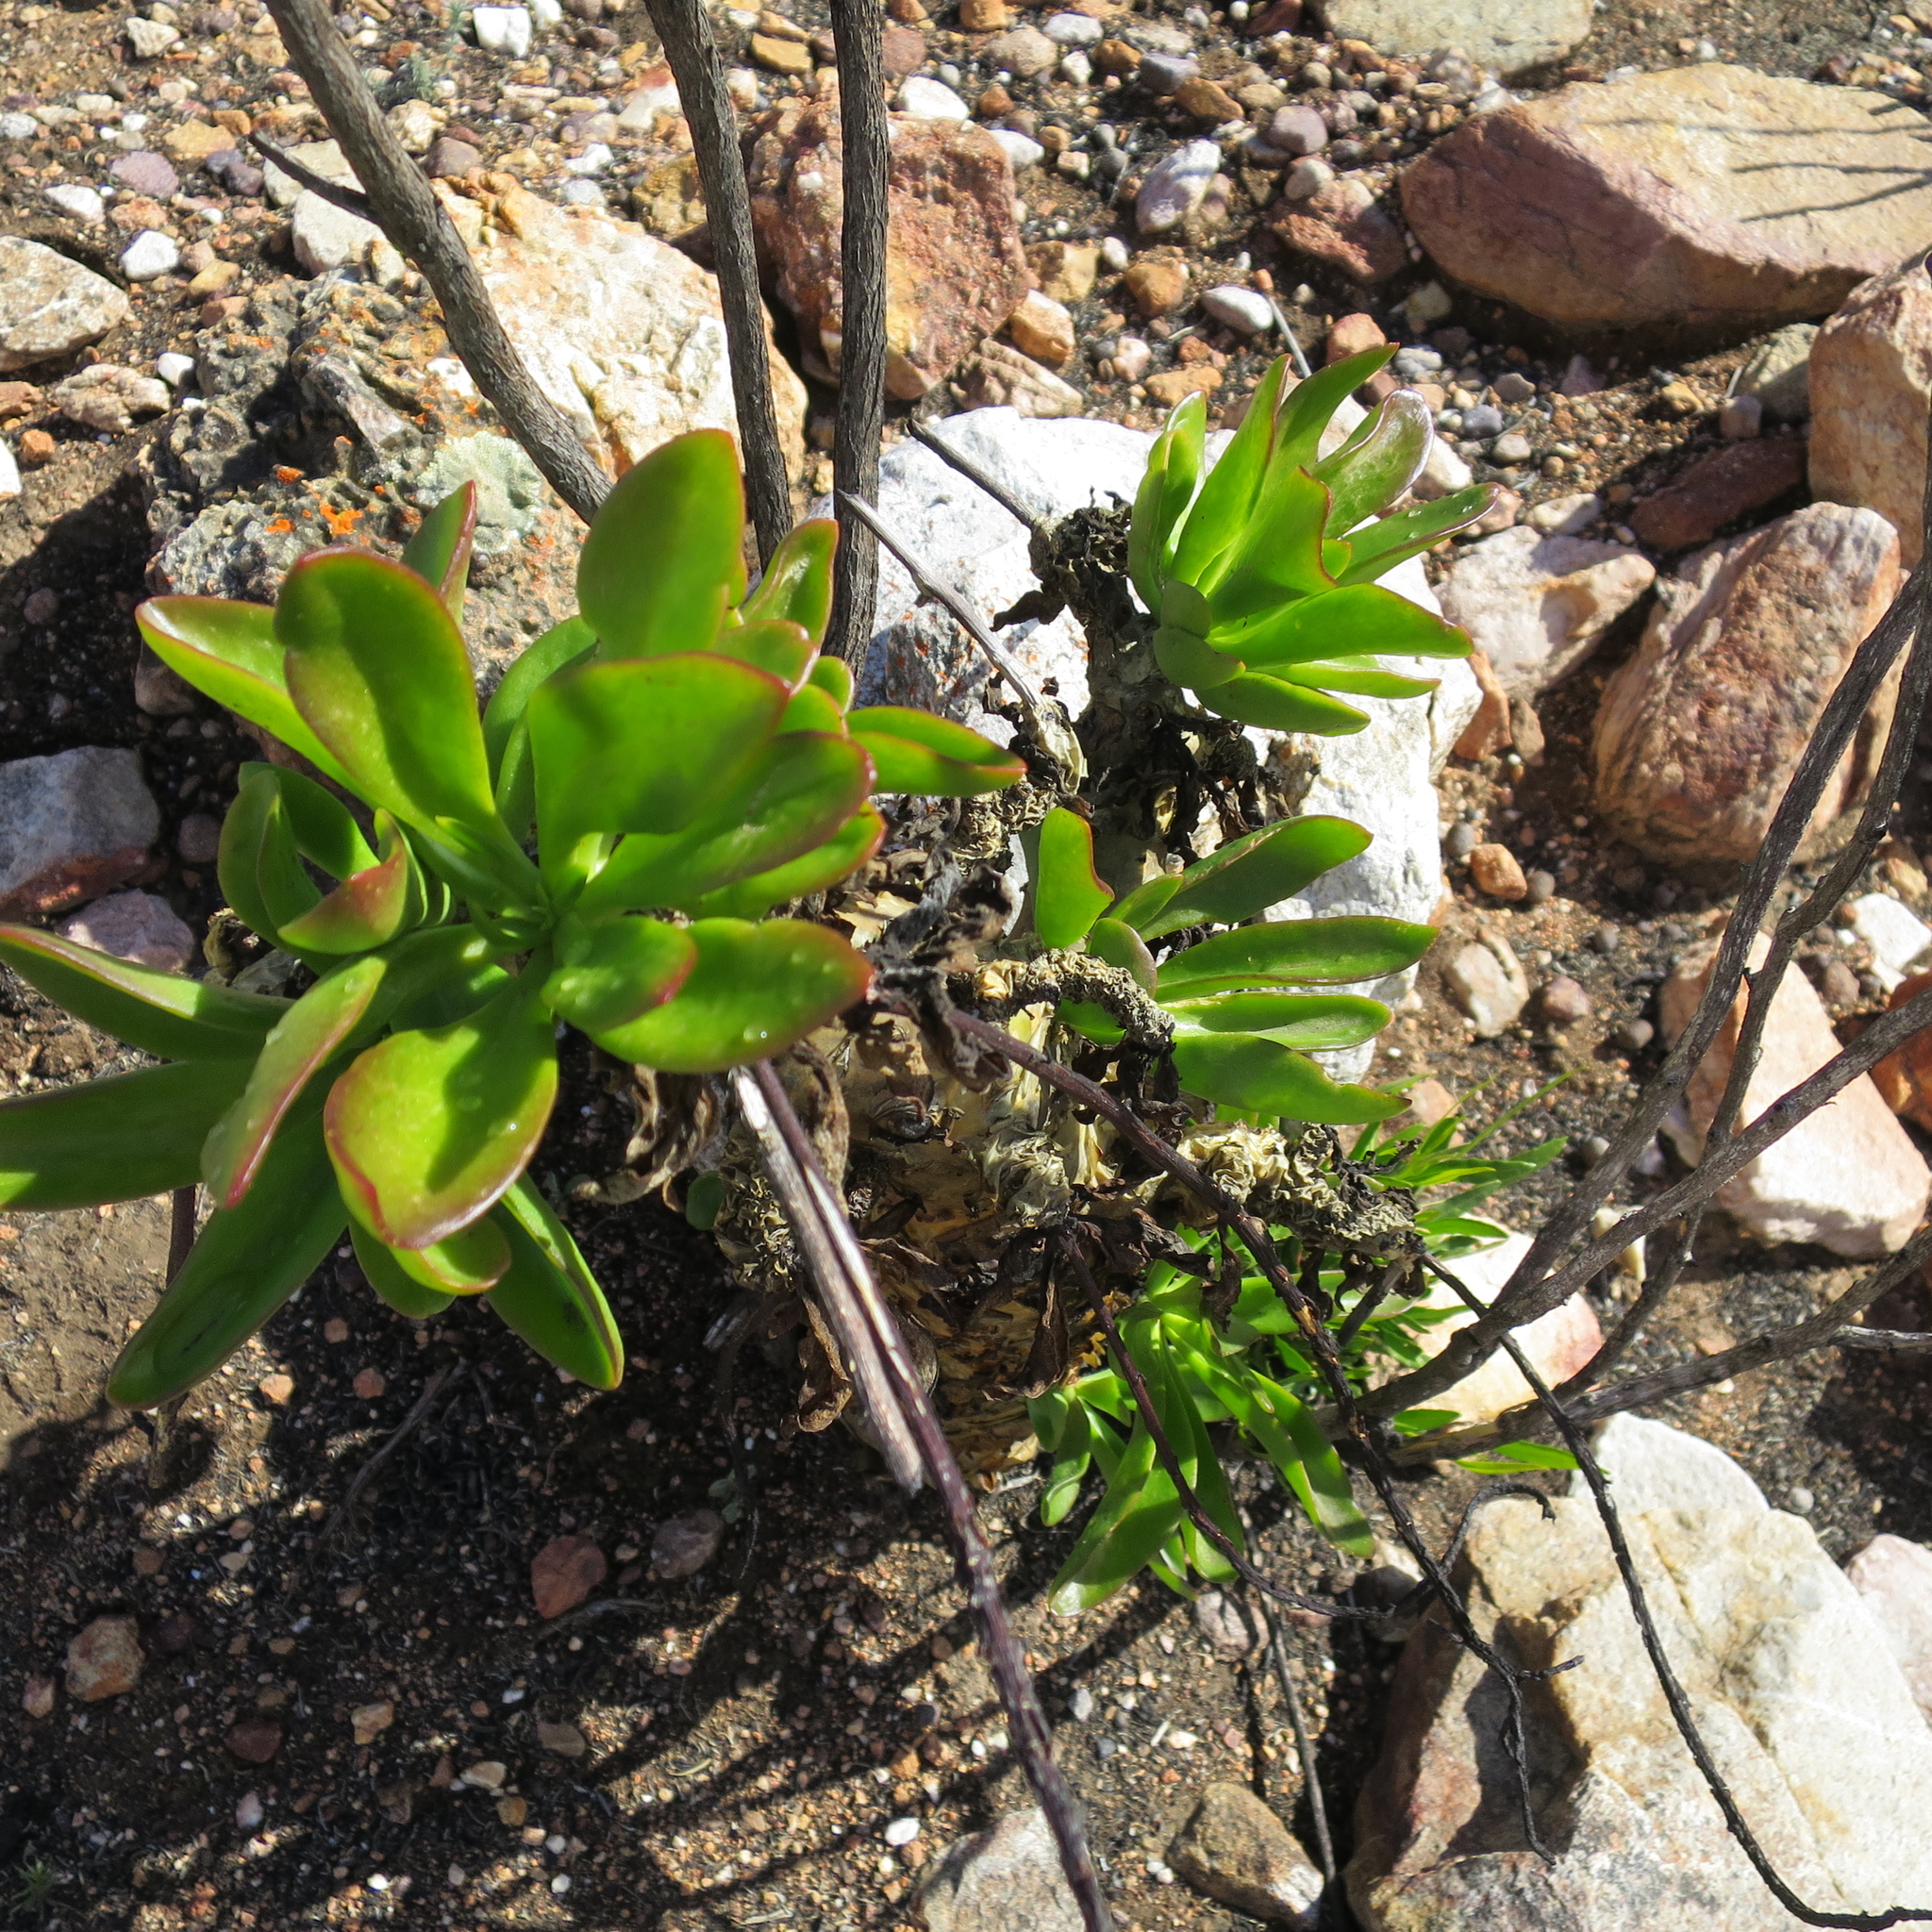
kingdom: Plantae
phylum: Tracheophyta
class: Magnoliopsida
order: Saxifragales
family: Crassulaceae
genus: Tylecodon
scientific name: Tylecodon paniculatus
